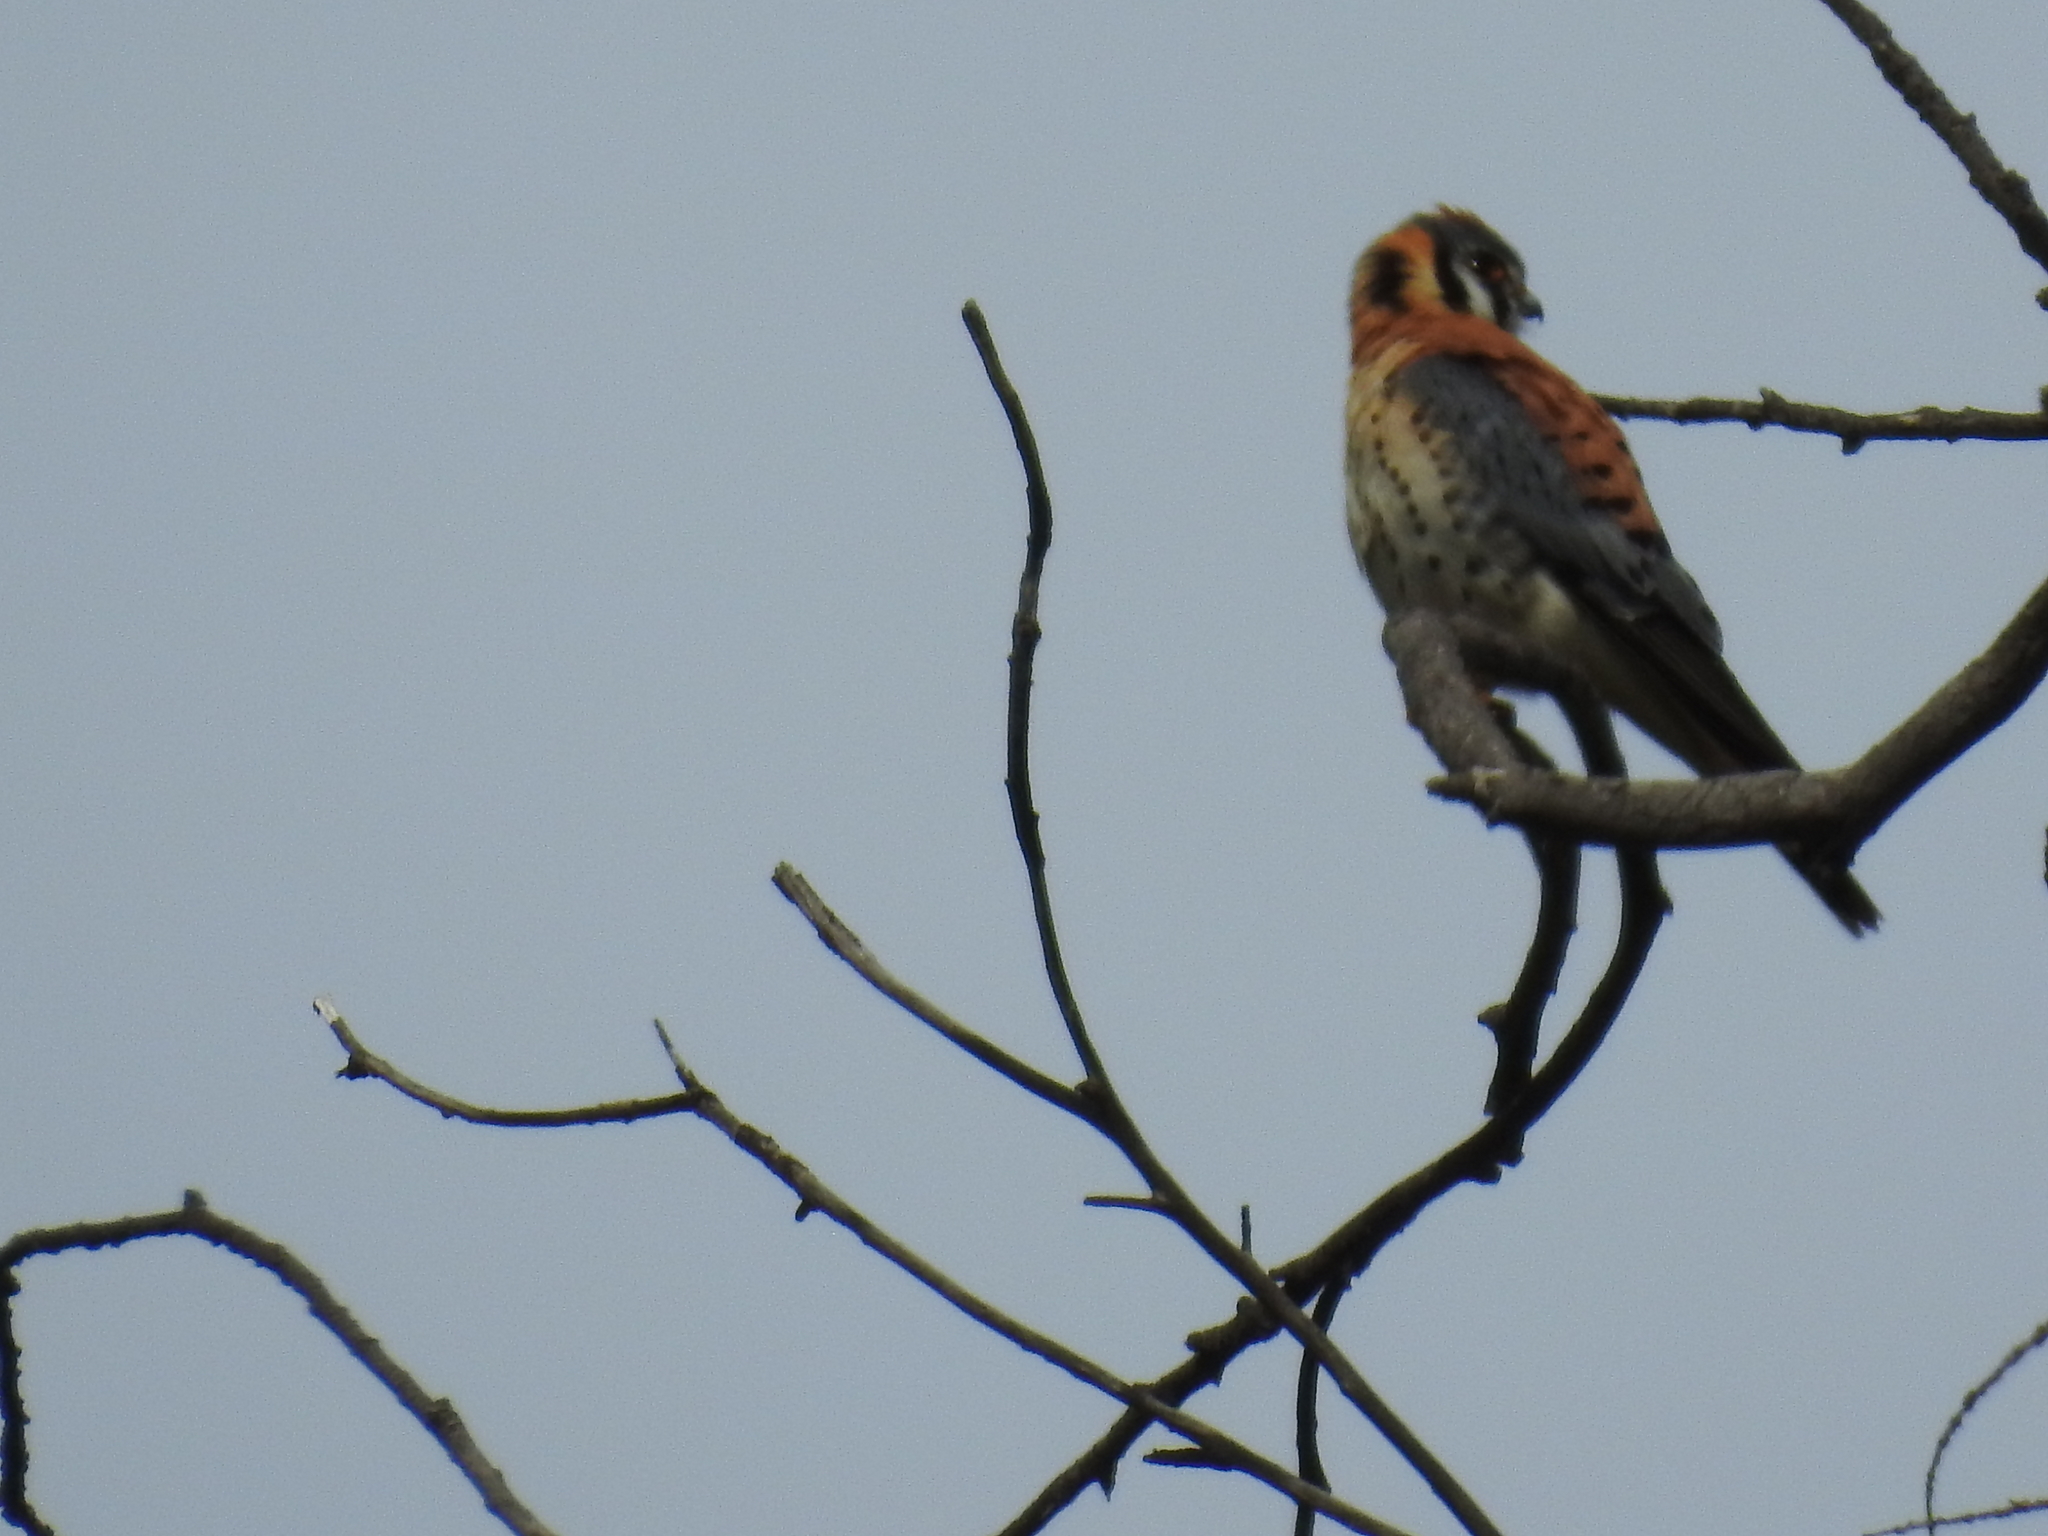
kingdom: Animalia
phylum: Chordata
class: Aves
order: Falconiformes
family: Falconidae
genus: Falco
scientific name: Falco sparverius
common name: American kestrel
